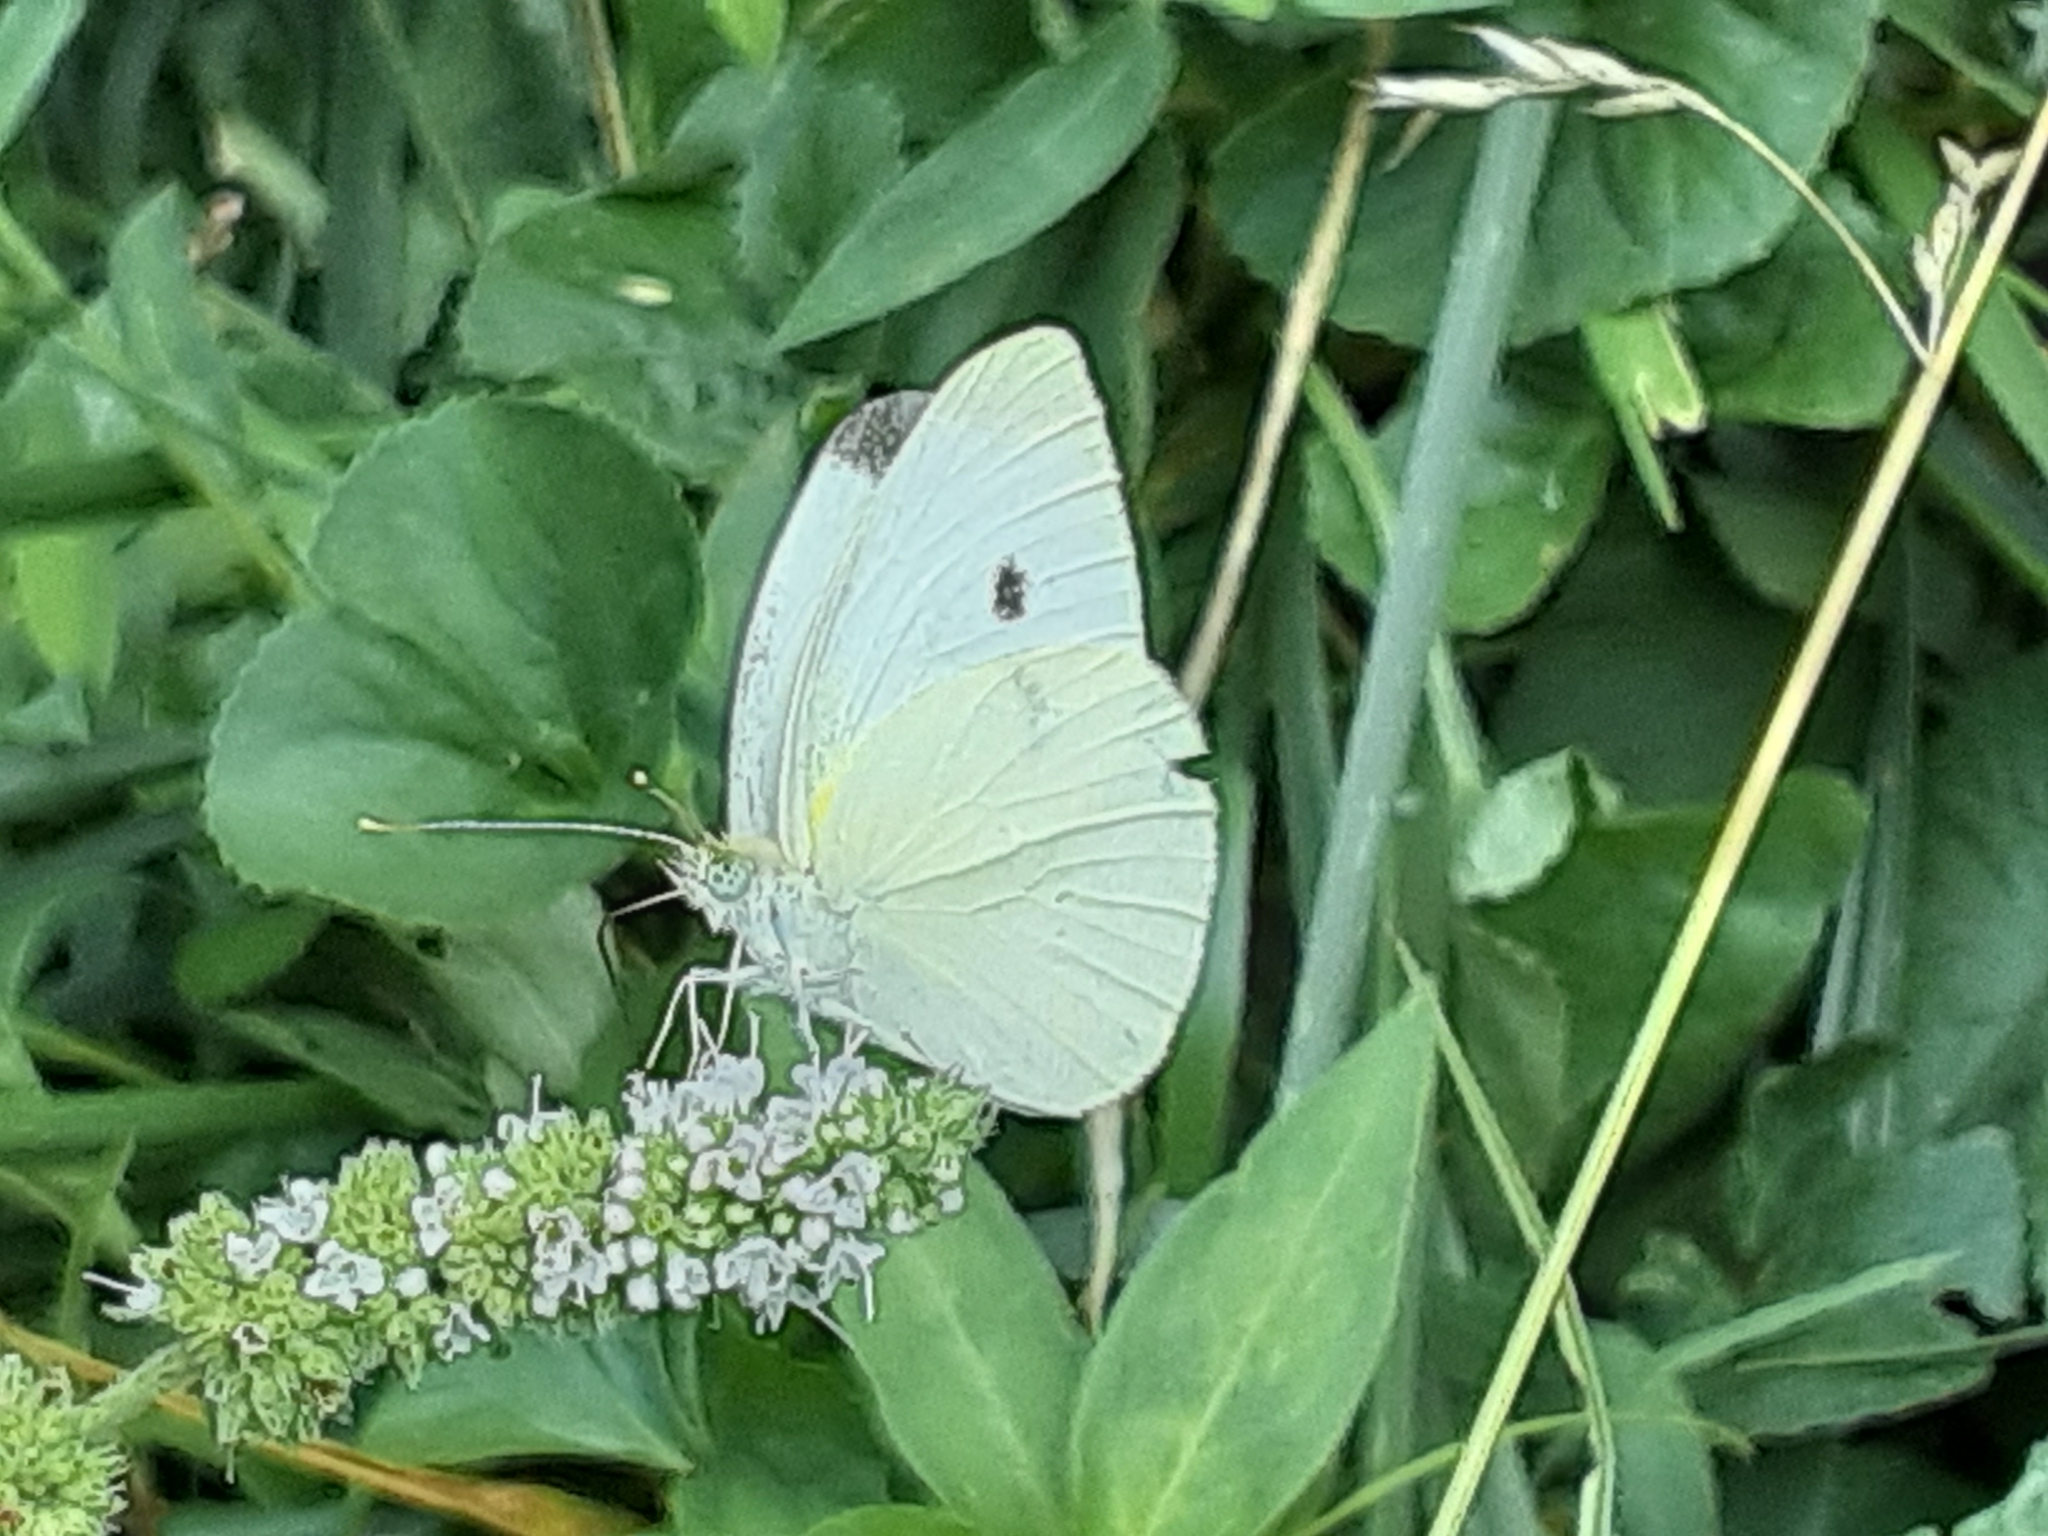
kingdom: Animalia
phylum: Arthropoda
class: Insecta
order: Lepidoptera
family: Pieridae
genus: Pieris
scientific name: Pieris rapae
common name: Small white
